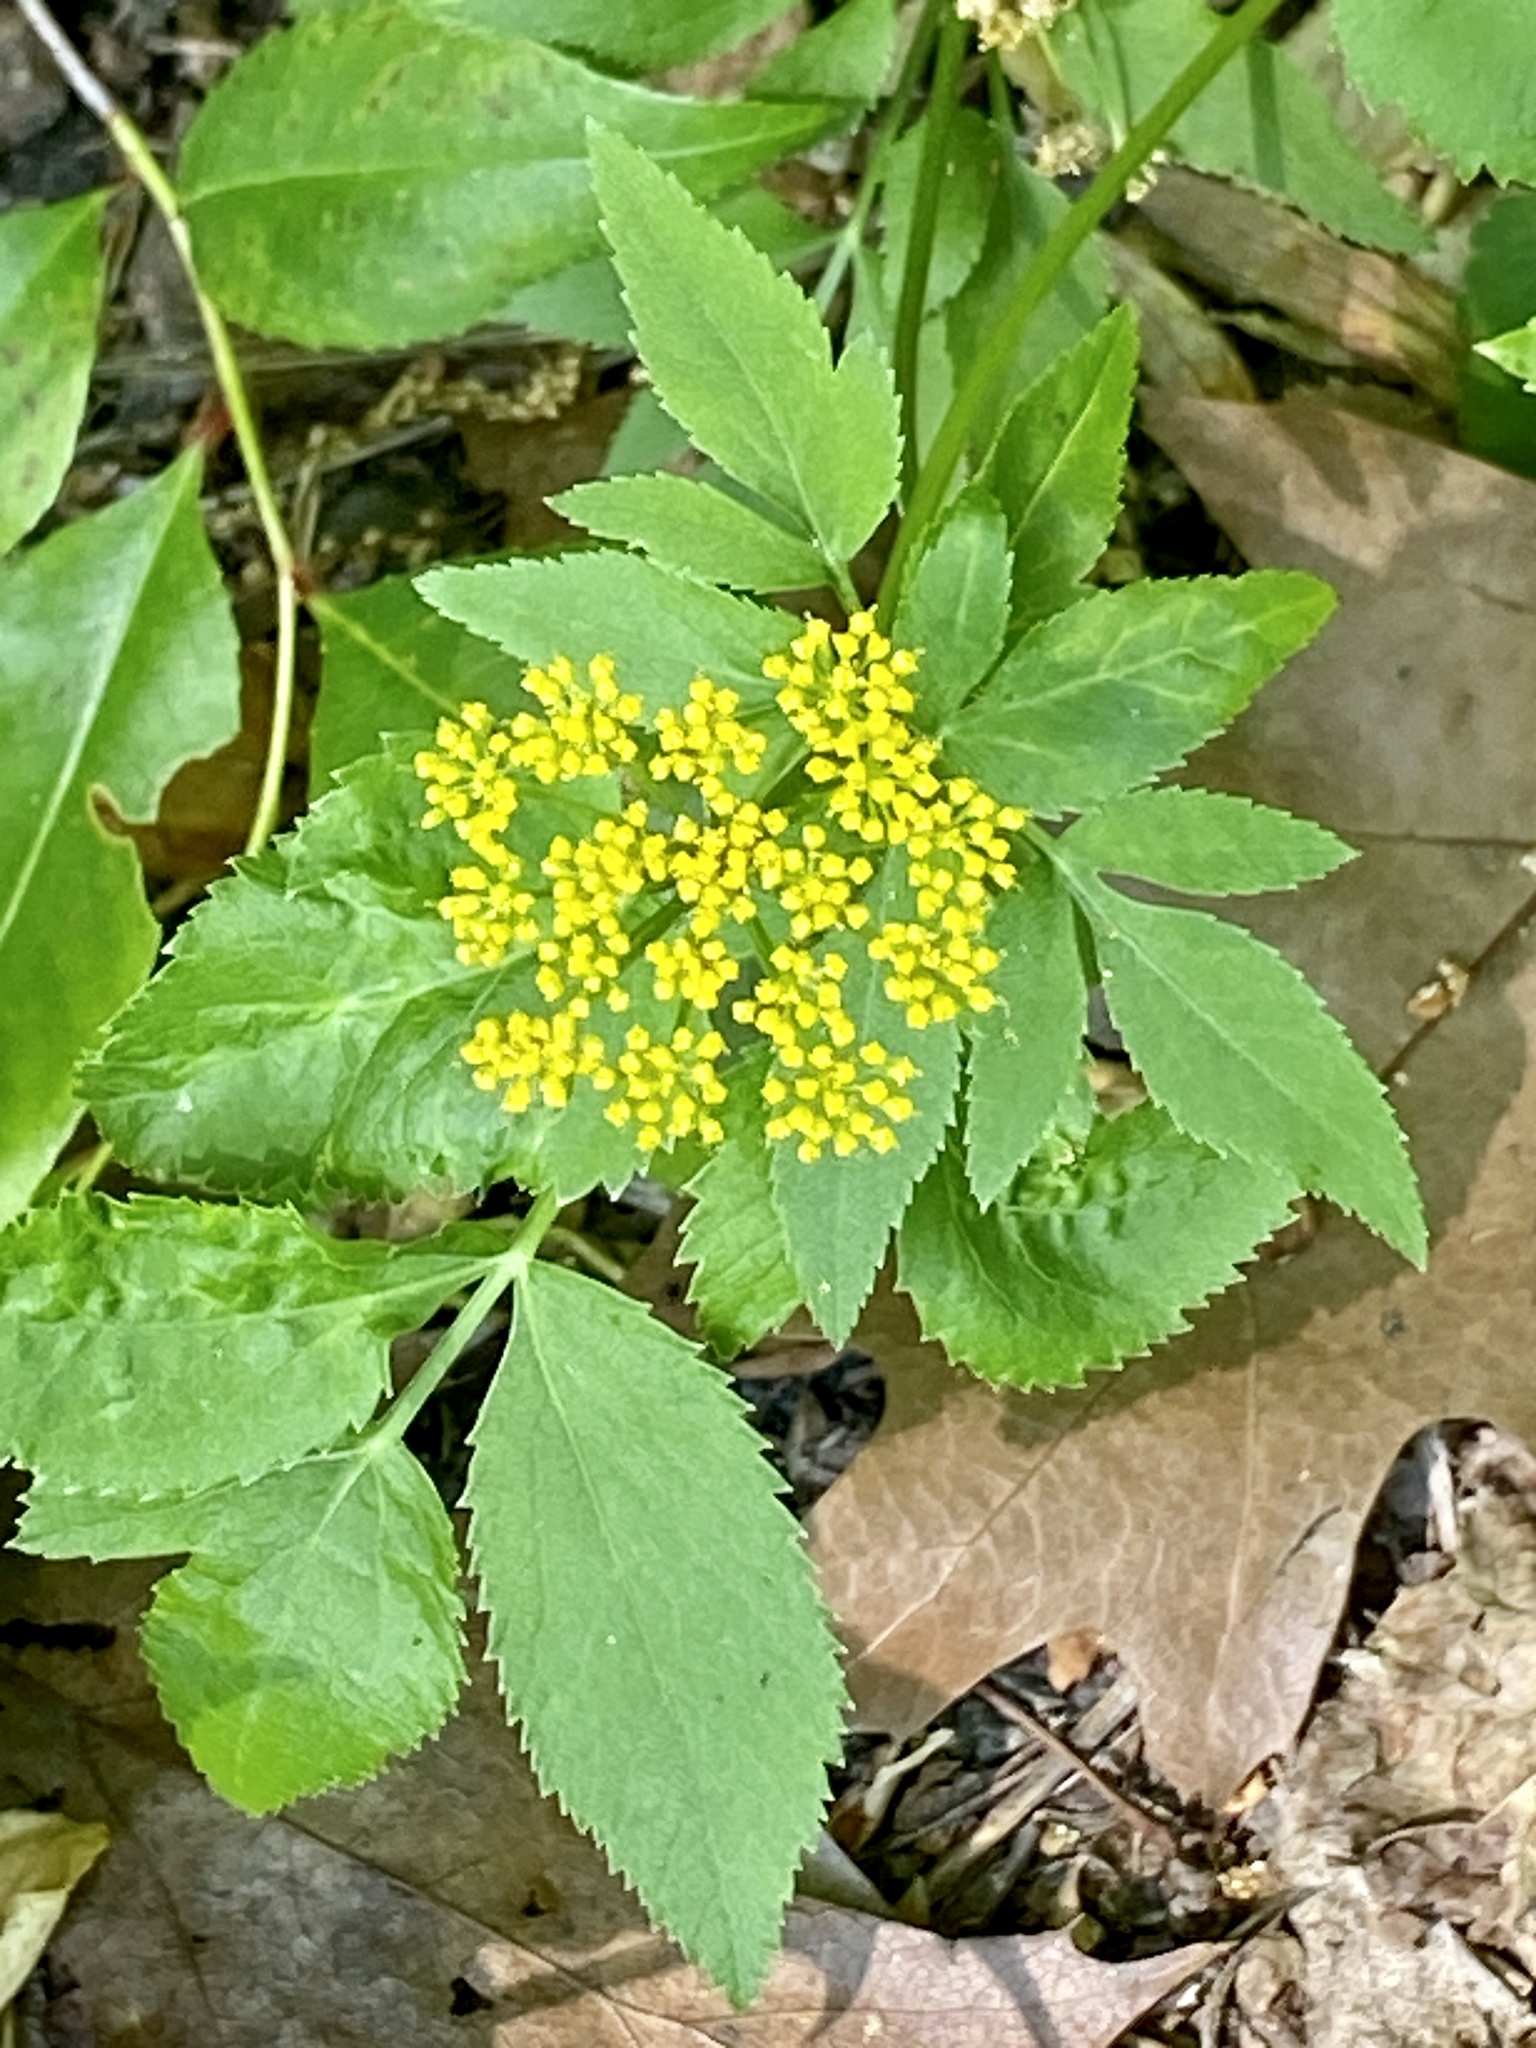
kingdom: Plantae
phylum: Tracheophyta
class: Magnoliopsida
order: Apiales
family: Apiaceae
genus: Zizia
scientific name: Zizia aurea
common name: Golden alexanders
